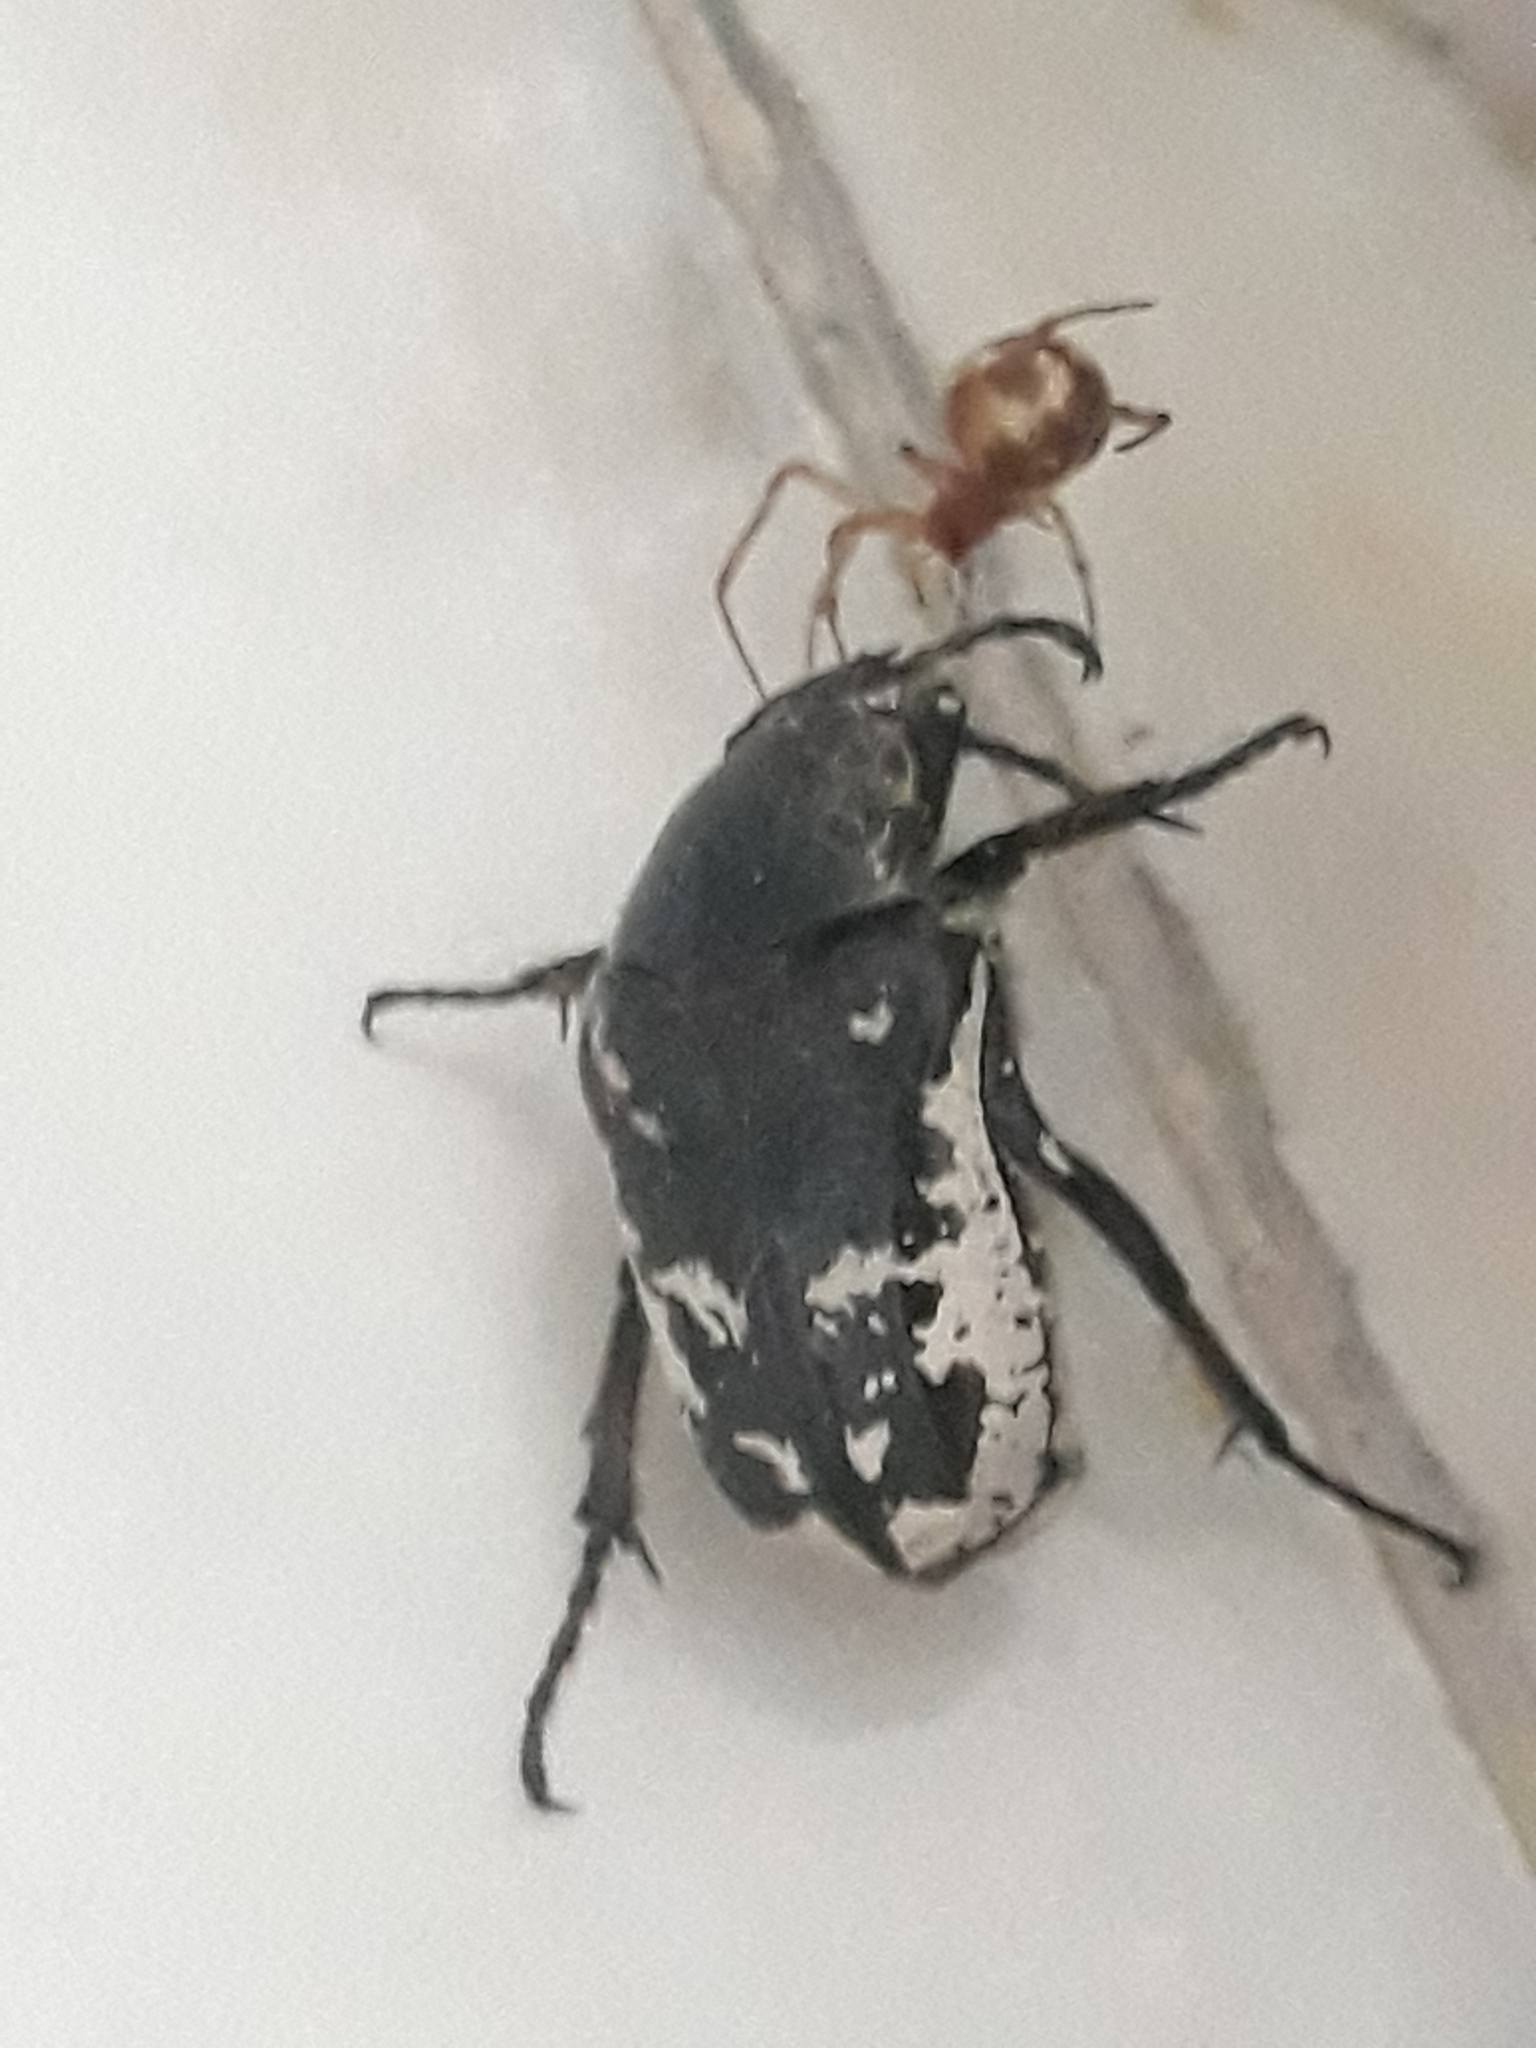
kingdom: Animalia
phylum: Arthropoda
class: Insecta
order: Coleoptera
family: Scarabaeidae
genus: Aethiessa
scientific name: Aethiessa floralis
